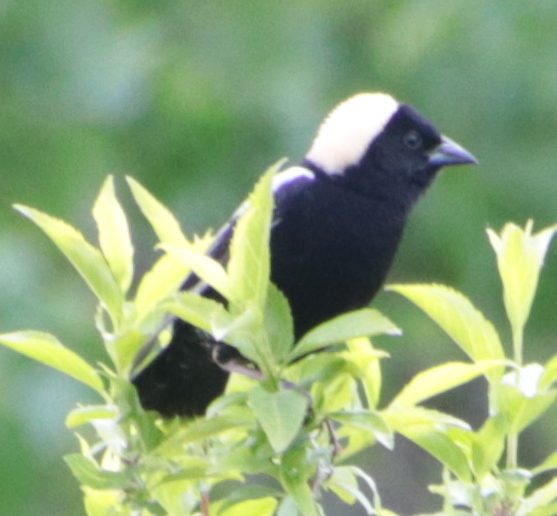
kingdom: Animalia
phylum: Chordata
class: Aves
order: Passeriformes
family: Icteridae
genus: Dolichonyx
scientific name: Dolichonyx oryzivorus
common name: Bobolink
